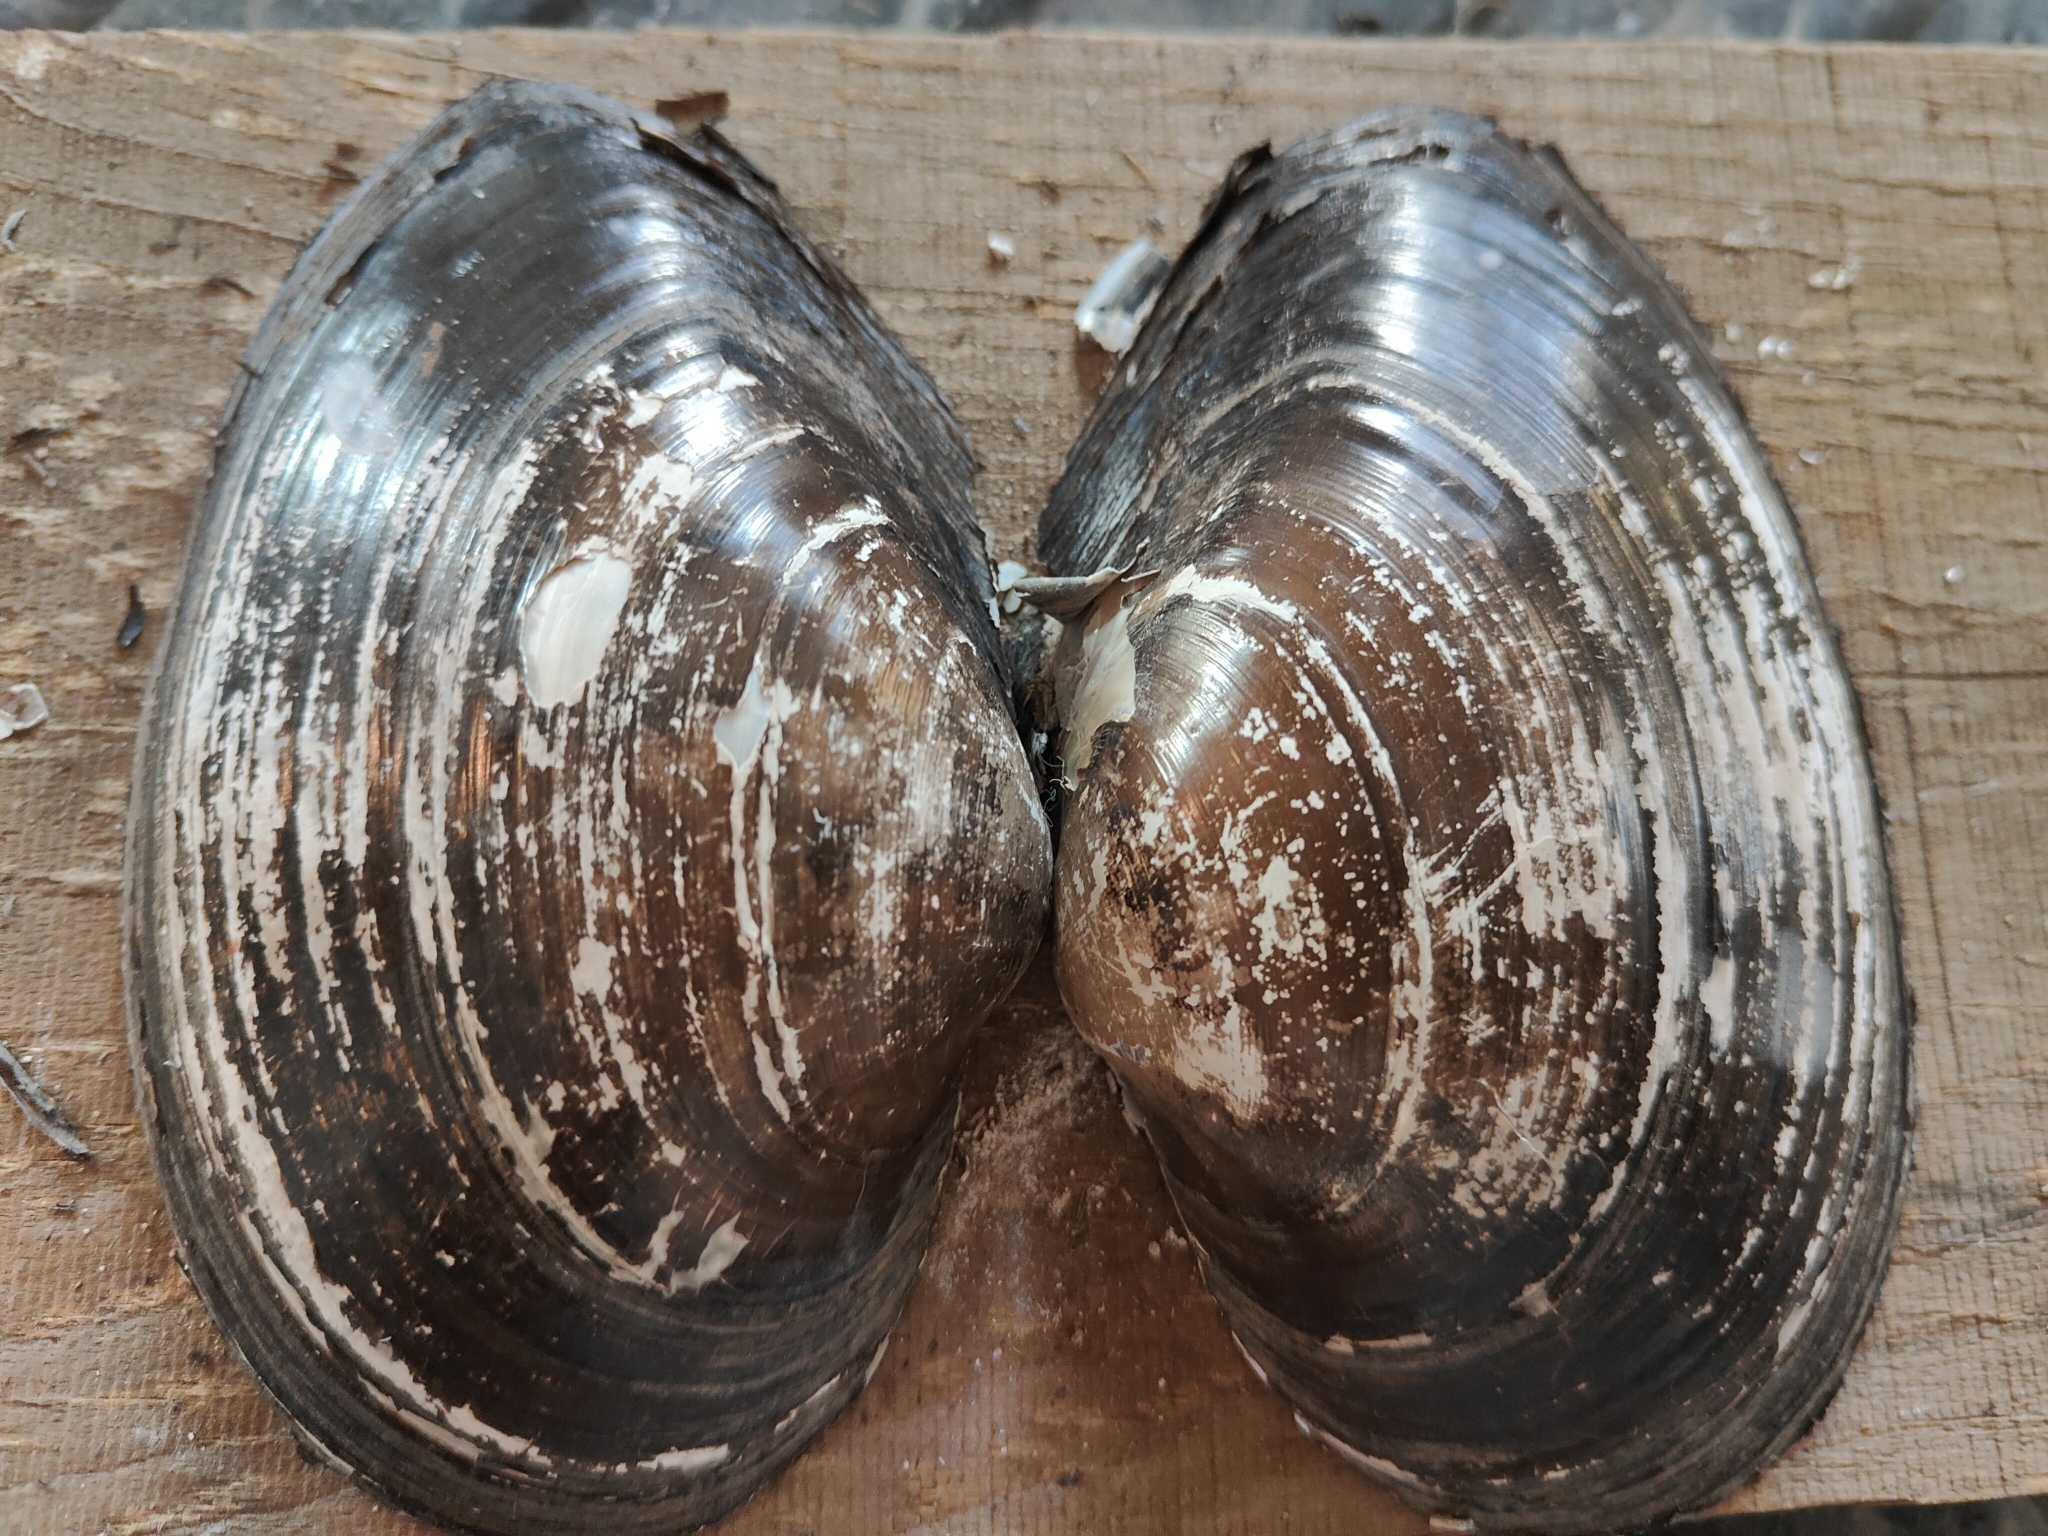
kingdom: Animalia
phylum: Mollusca
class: Bivalvia
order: Unionida
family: Unionidae
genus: Pyganodon
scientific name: Pyganodon grandis
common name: Giant floater
